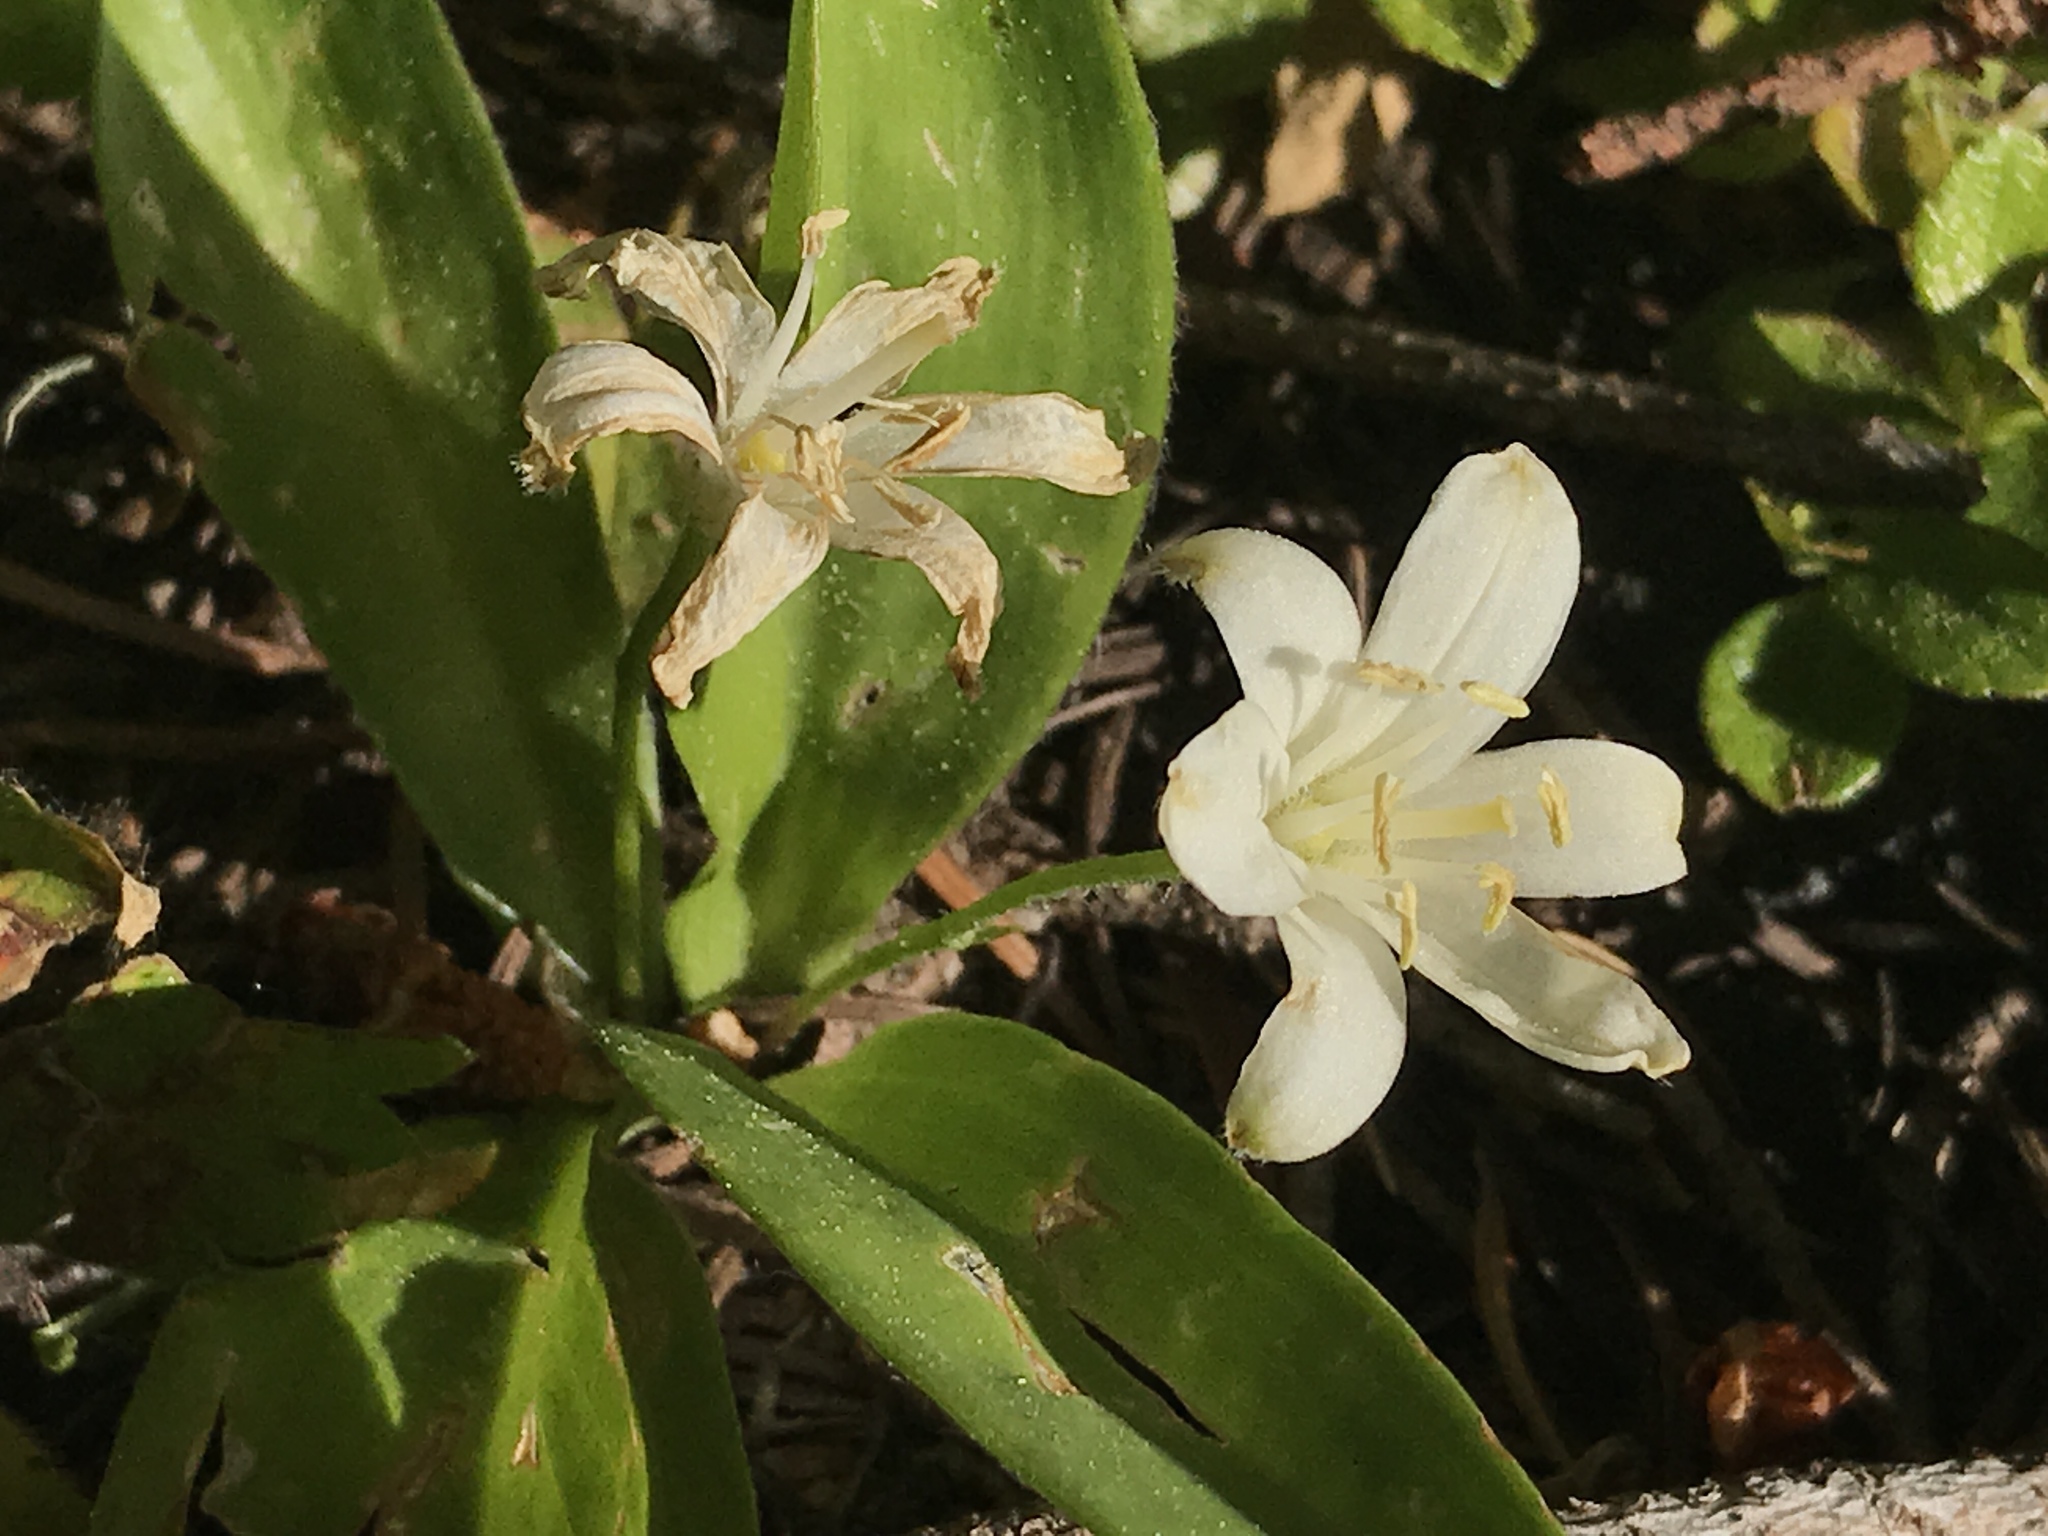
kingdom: Plantae
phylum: Tracheophyta
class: Liliopsida
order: Liliales
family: Liliaceae
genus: Clintonia
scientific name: Clintonia uniflora
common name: Queen's cup
